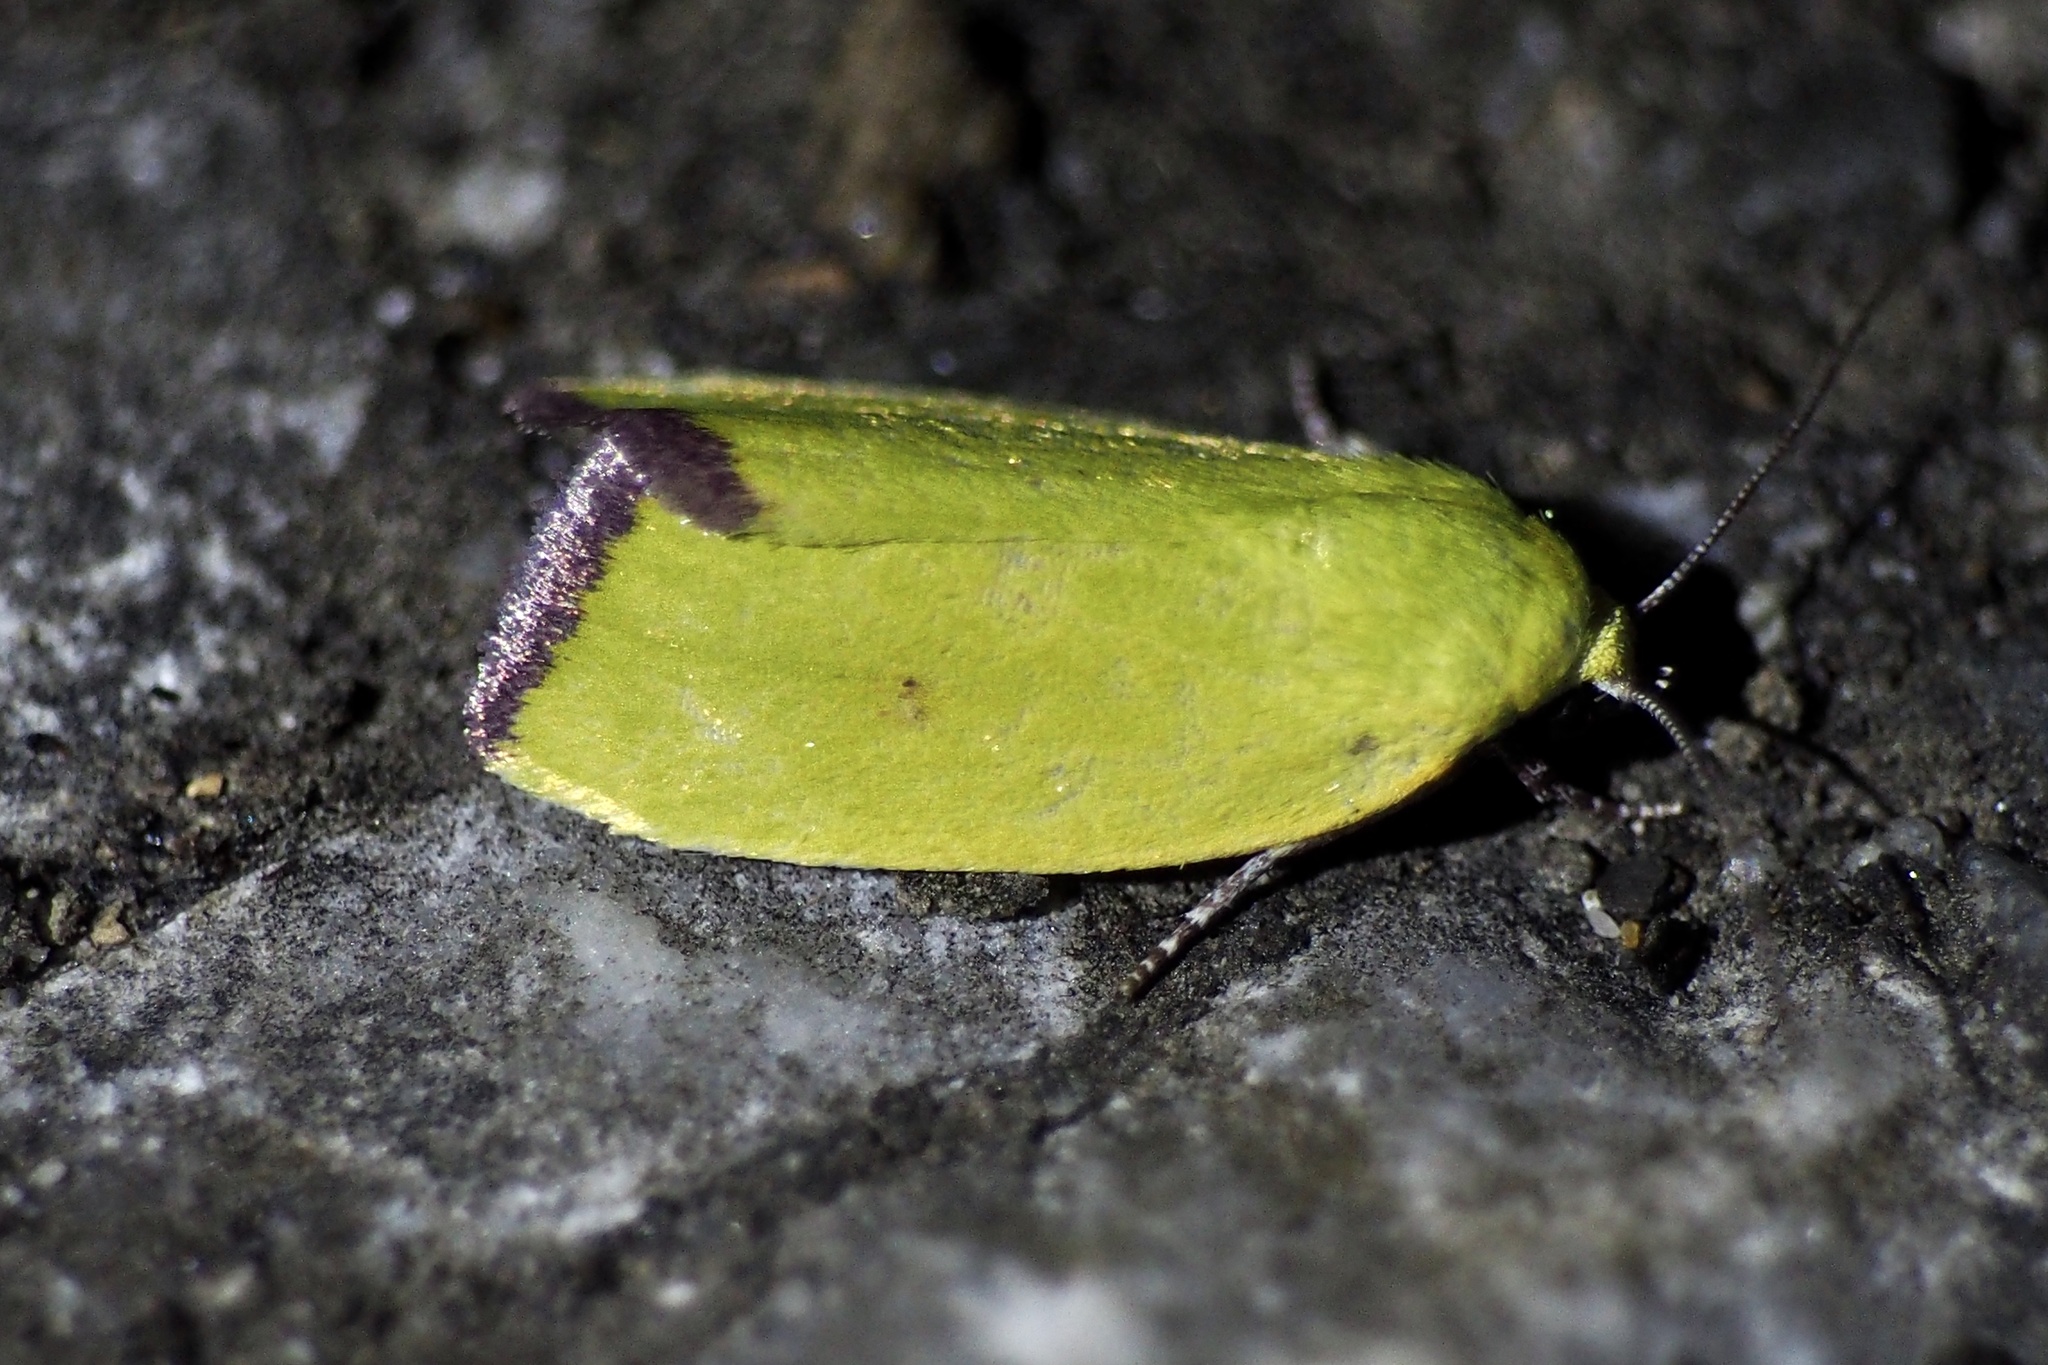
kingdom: Animalia
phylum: Arthropoda
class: Insecta
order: Lepidoptera
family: Nolidae
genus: Earias
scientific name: Earias pudicana
